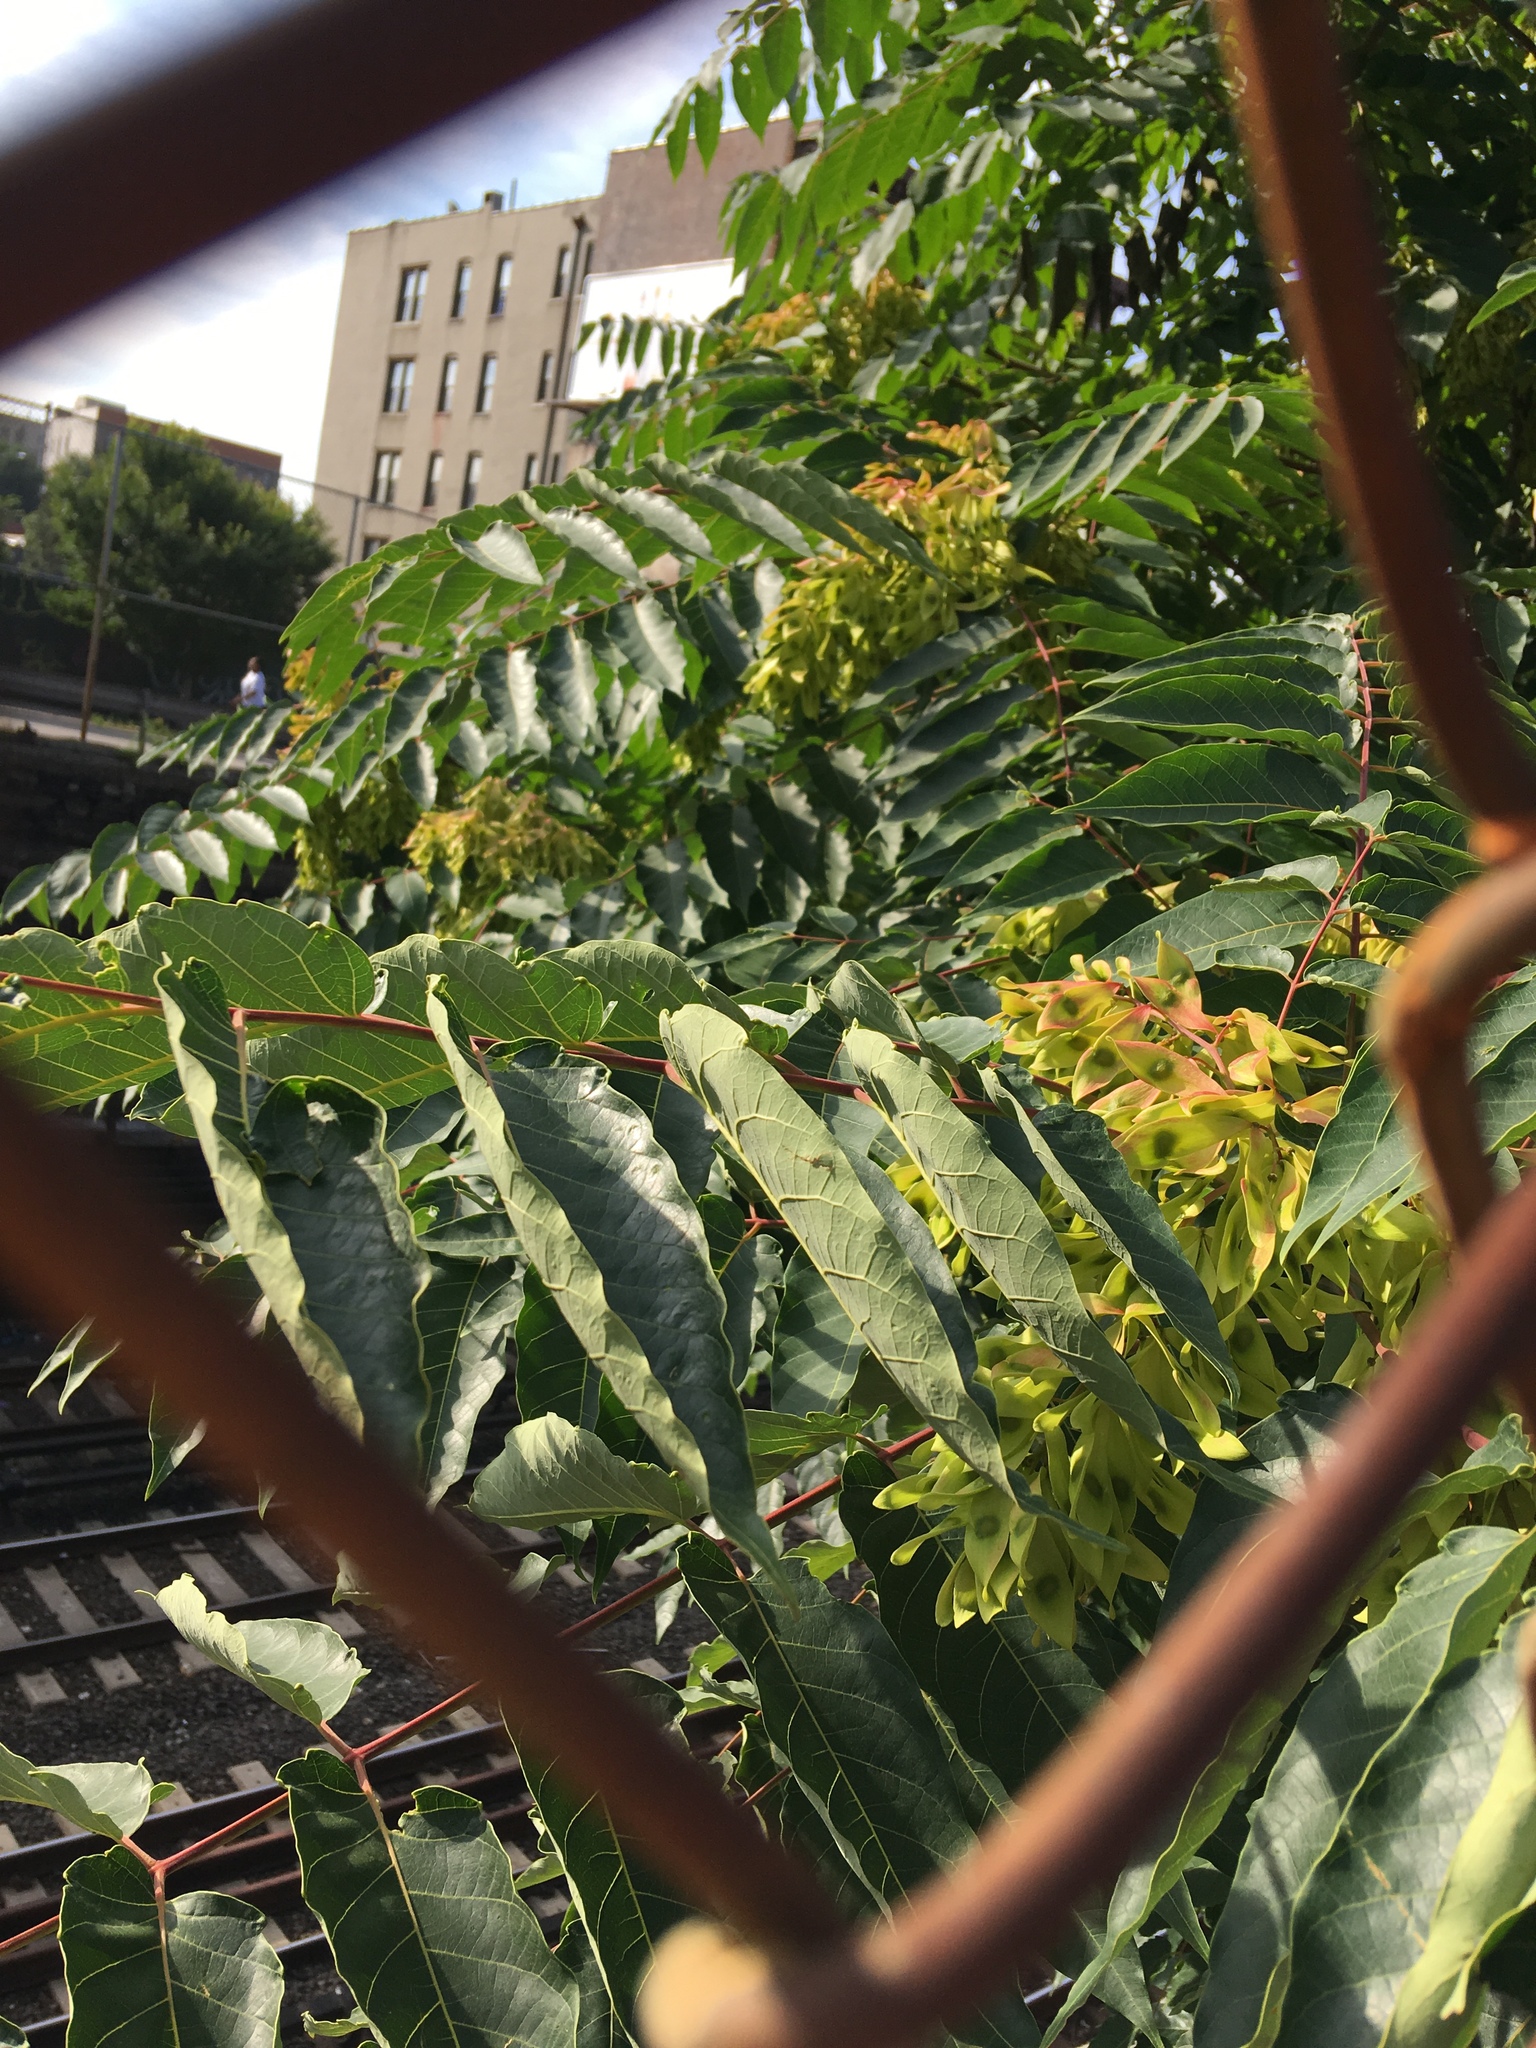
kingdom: Plantae
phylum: Tracheophyta
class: Magnoliopsida
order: Sapindales
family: Simaroubaceae
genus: Ailanthus
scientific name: Ailanthus altissima
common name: Tree-of-heaven
